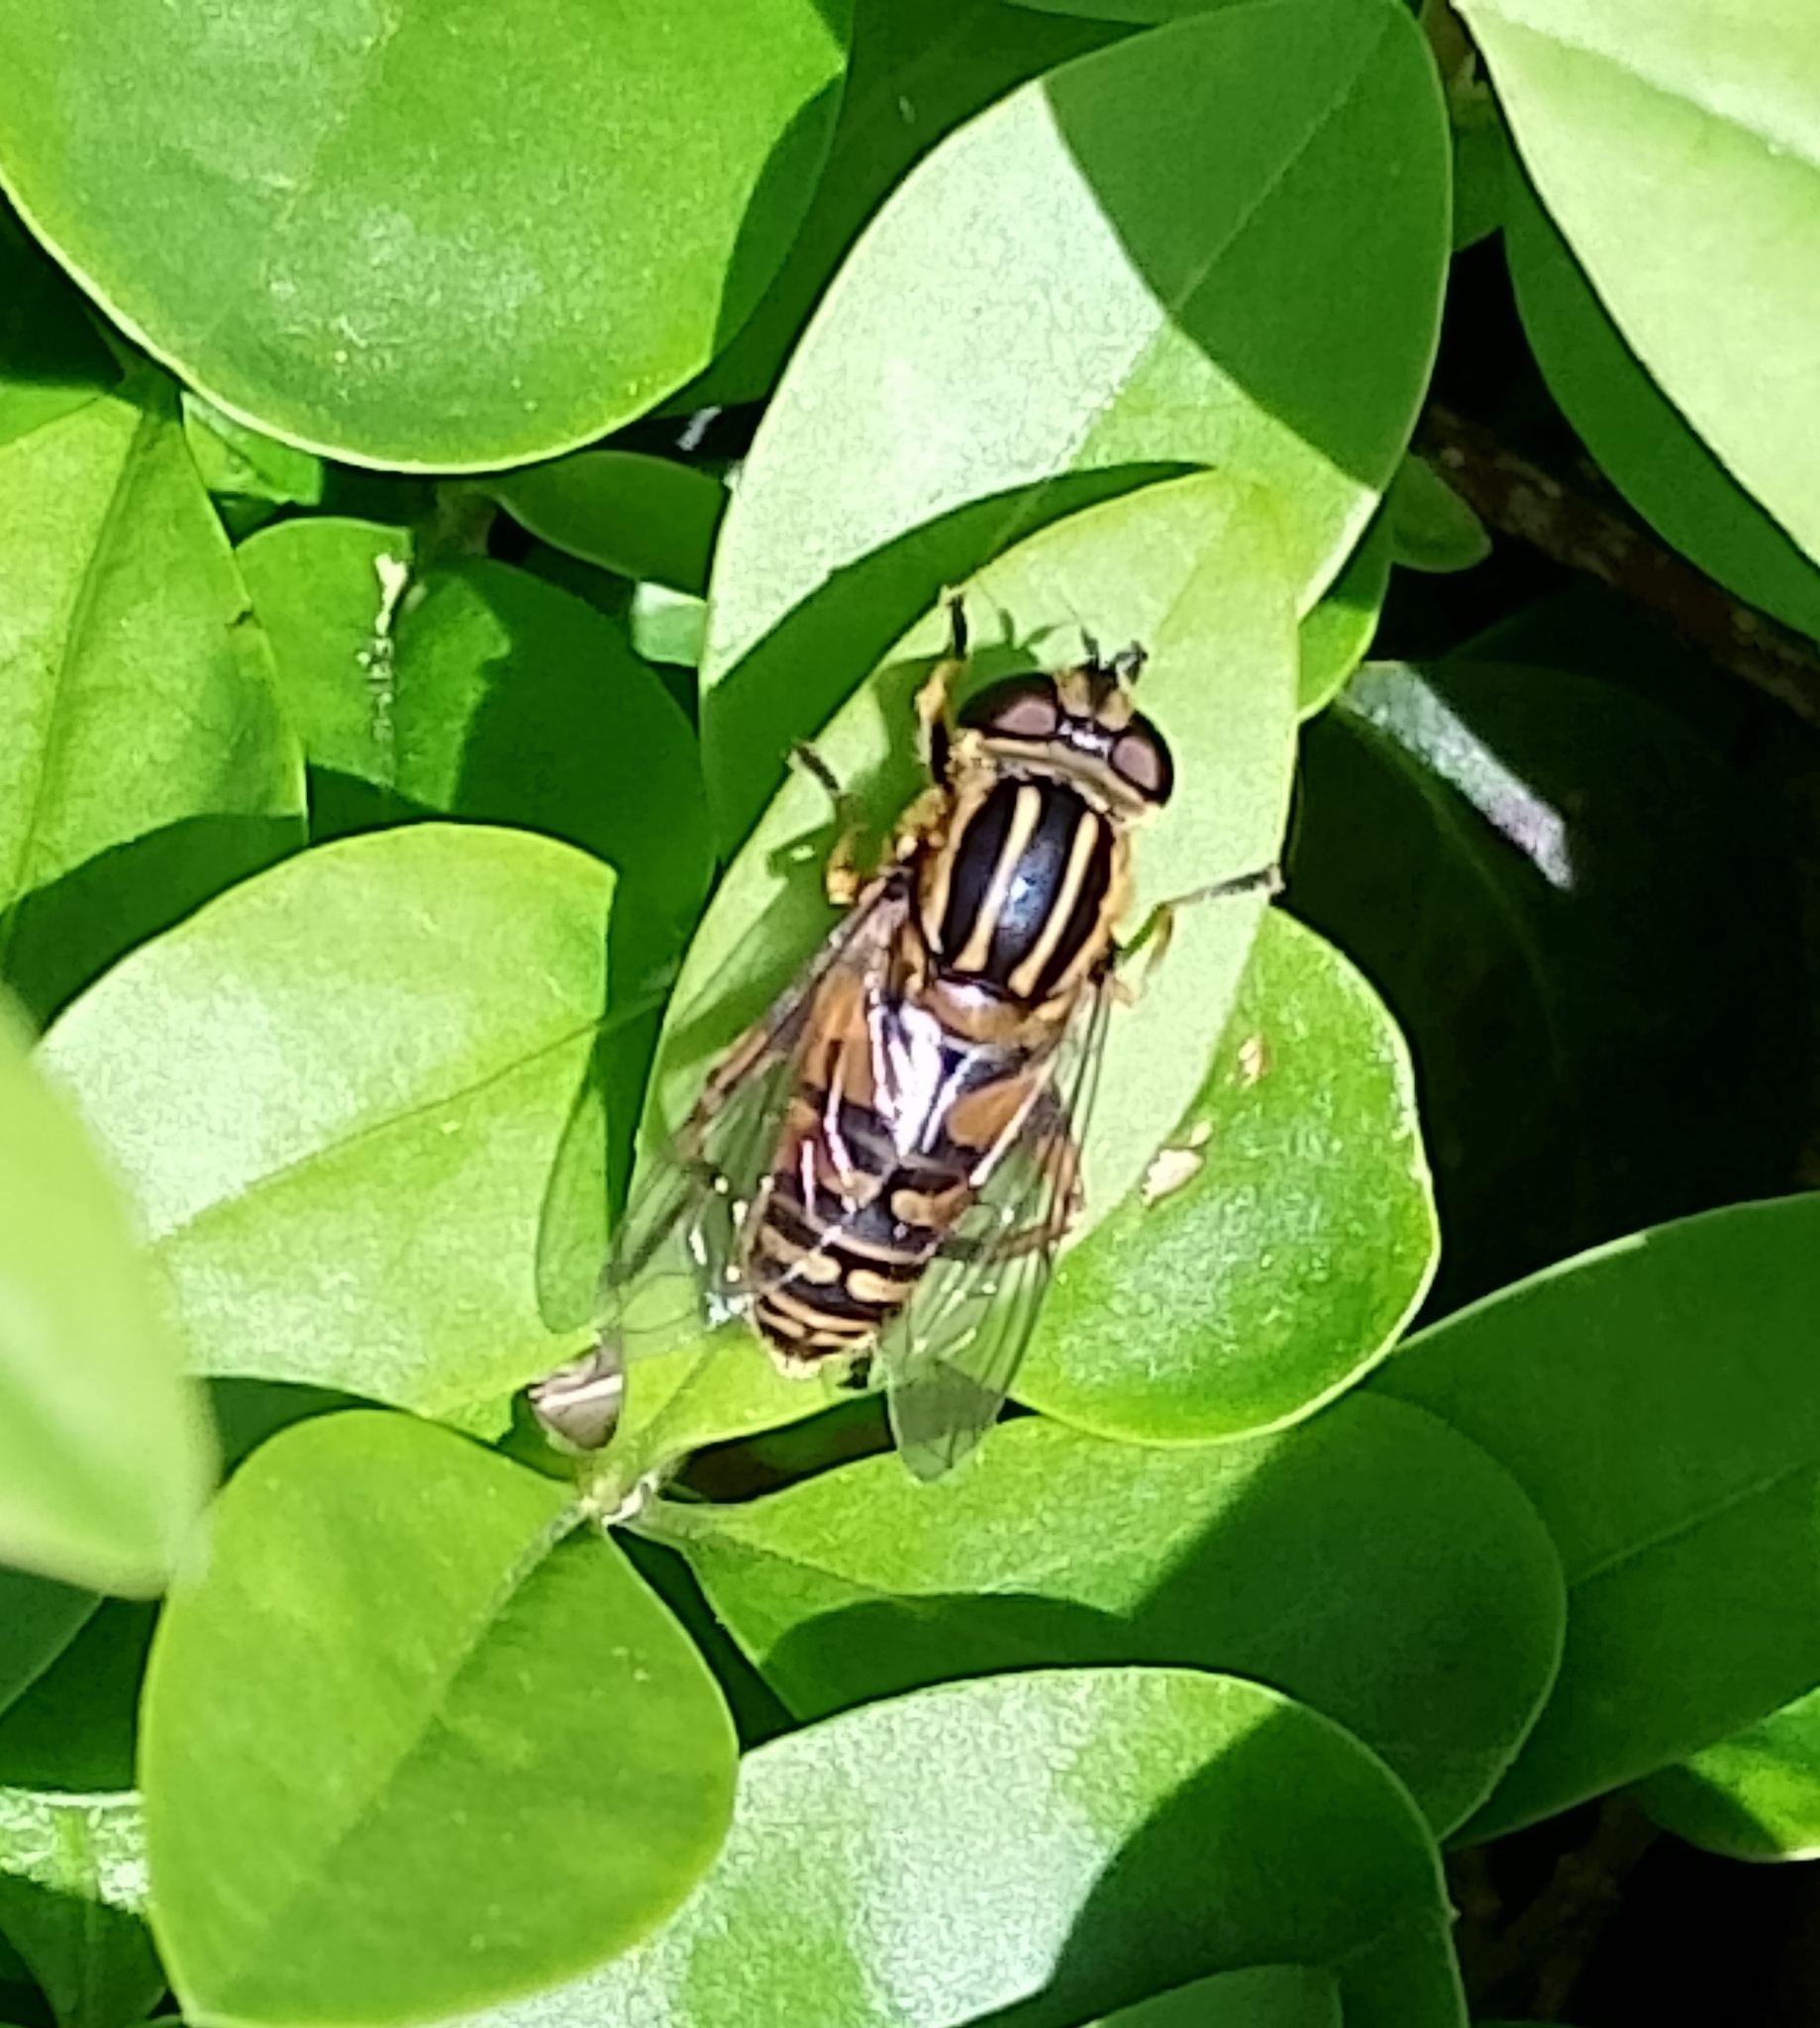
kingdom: Animalia
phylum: Arthropoda
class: Insecta
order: Diptera
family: Syrphidae
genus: Helophilus
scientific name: Helophilus pendulus
